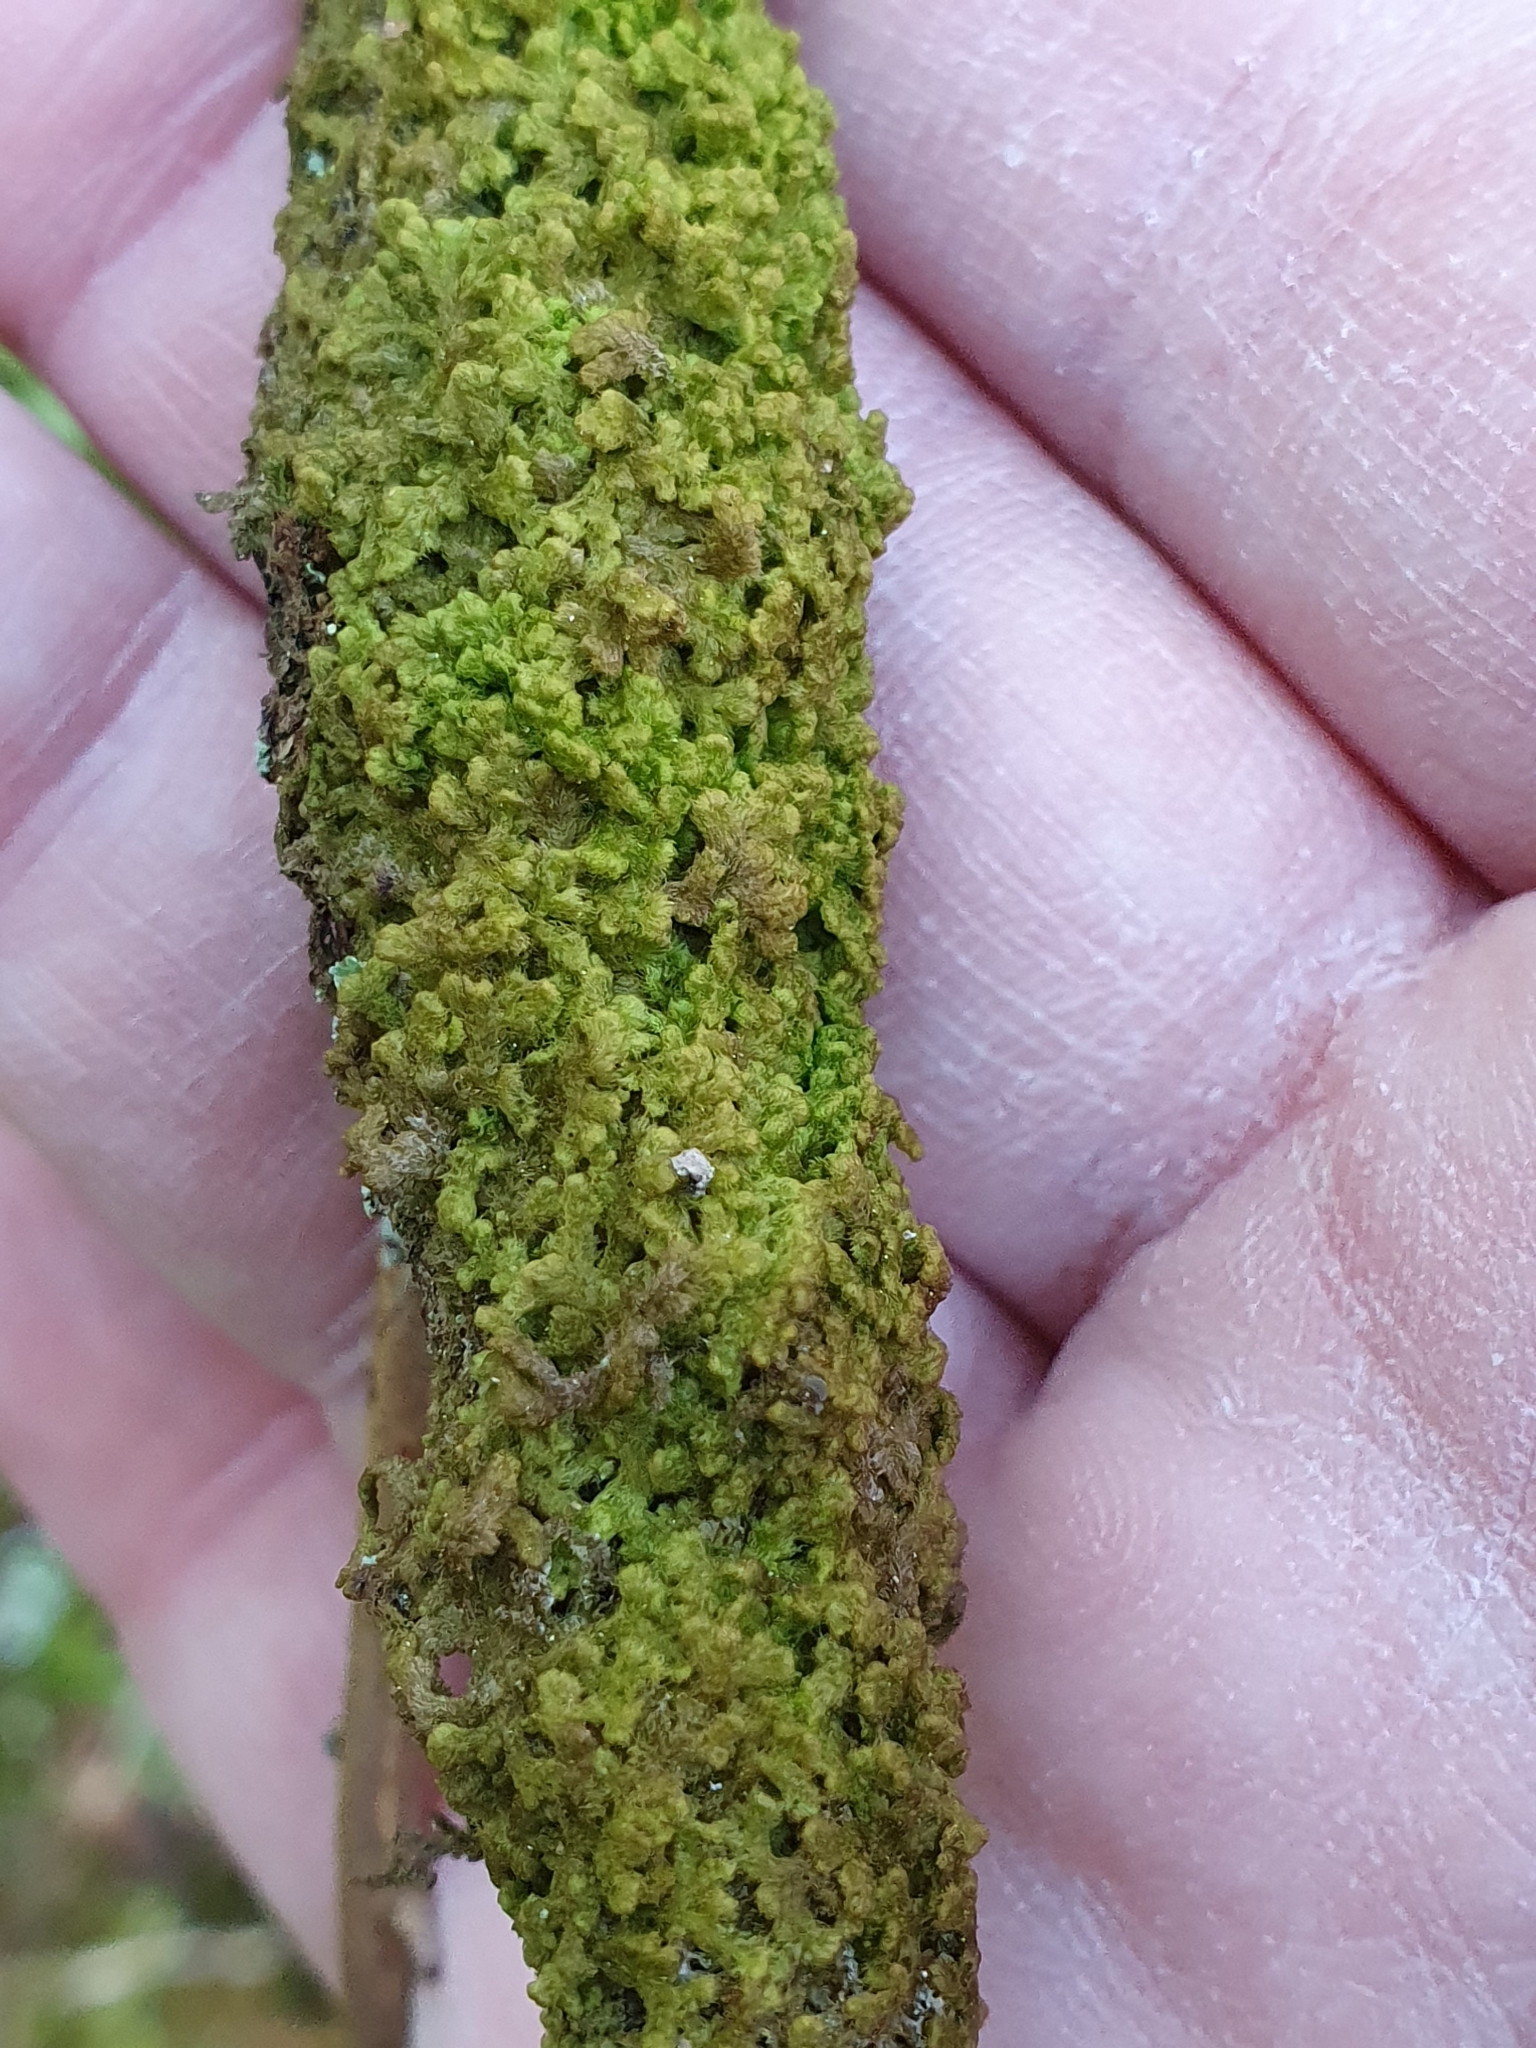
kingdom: Plantae
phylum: Marchantiophyta
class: Jungermanniopsida
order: Ptilidiales
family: Ptilidiaceae
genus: Ptilidium
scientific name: Ptilidium pulcherrimum
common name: Tree fringewort
